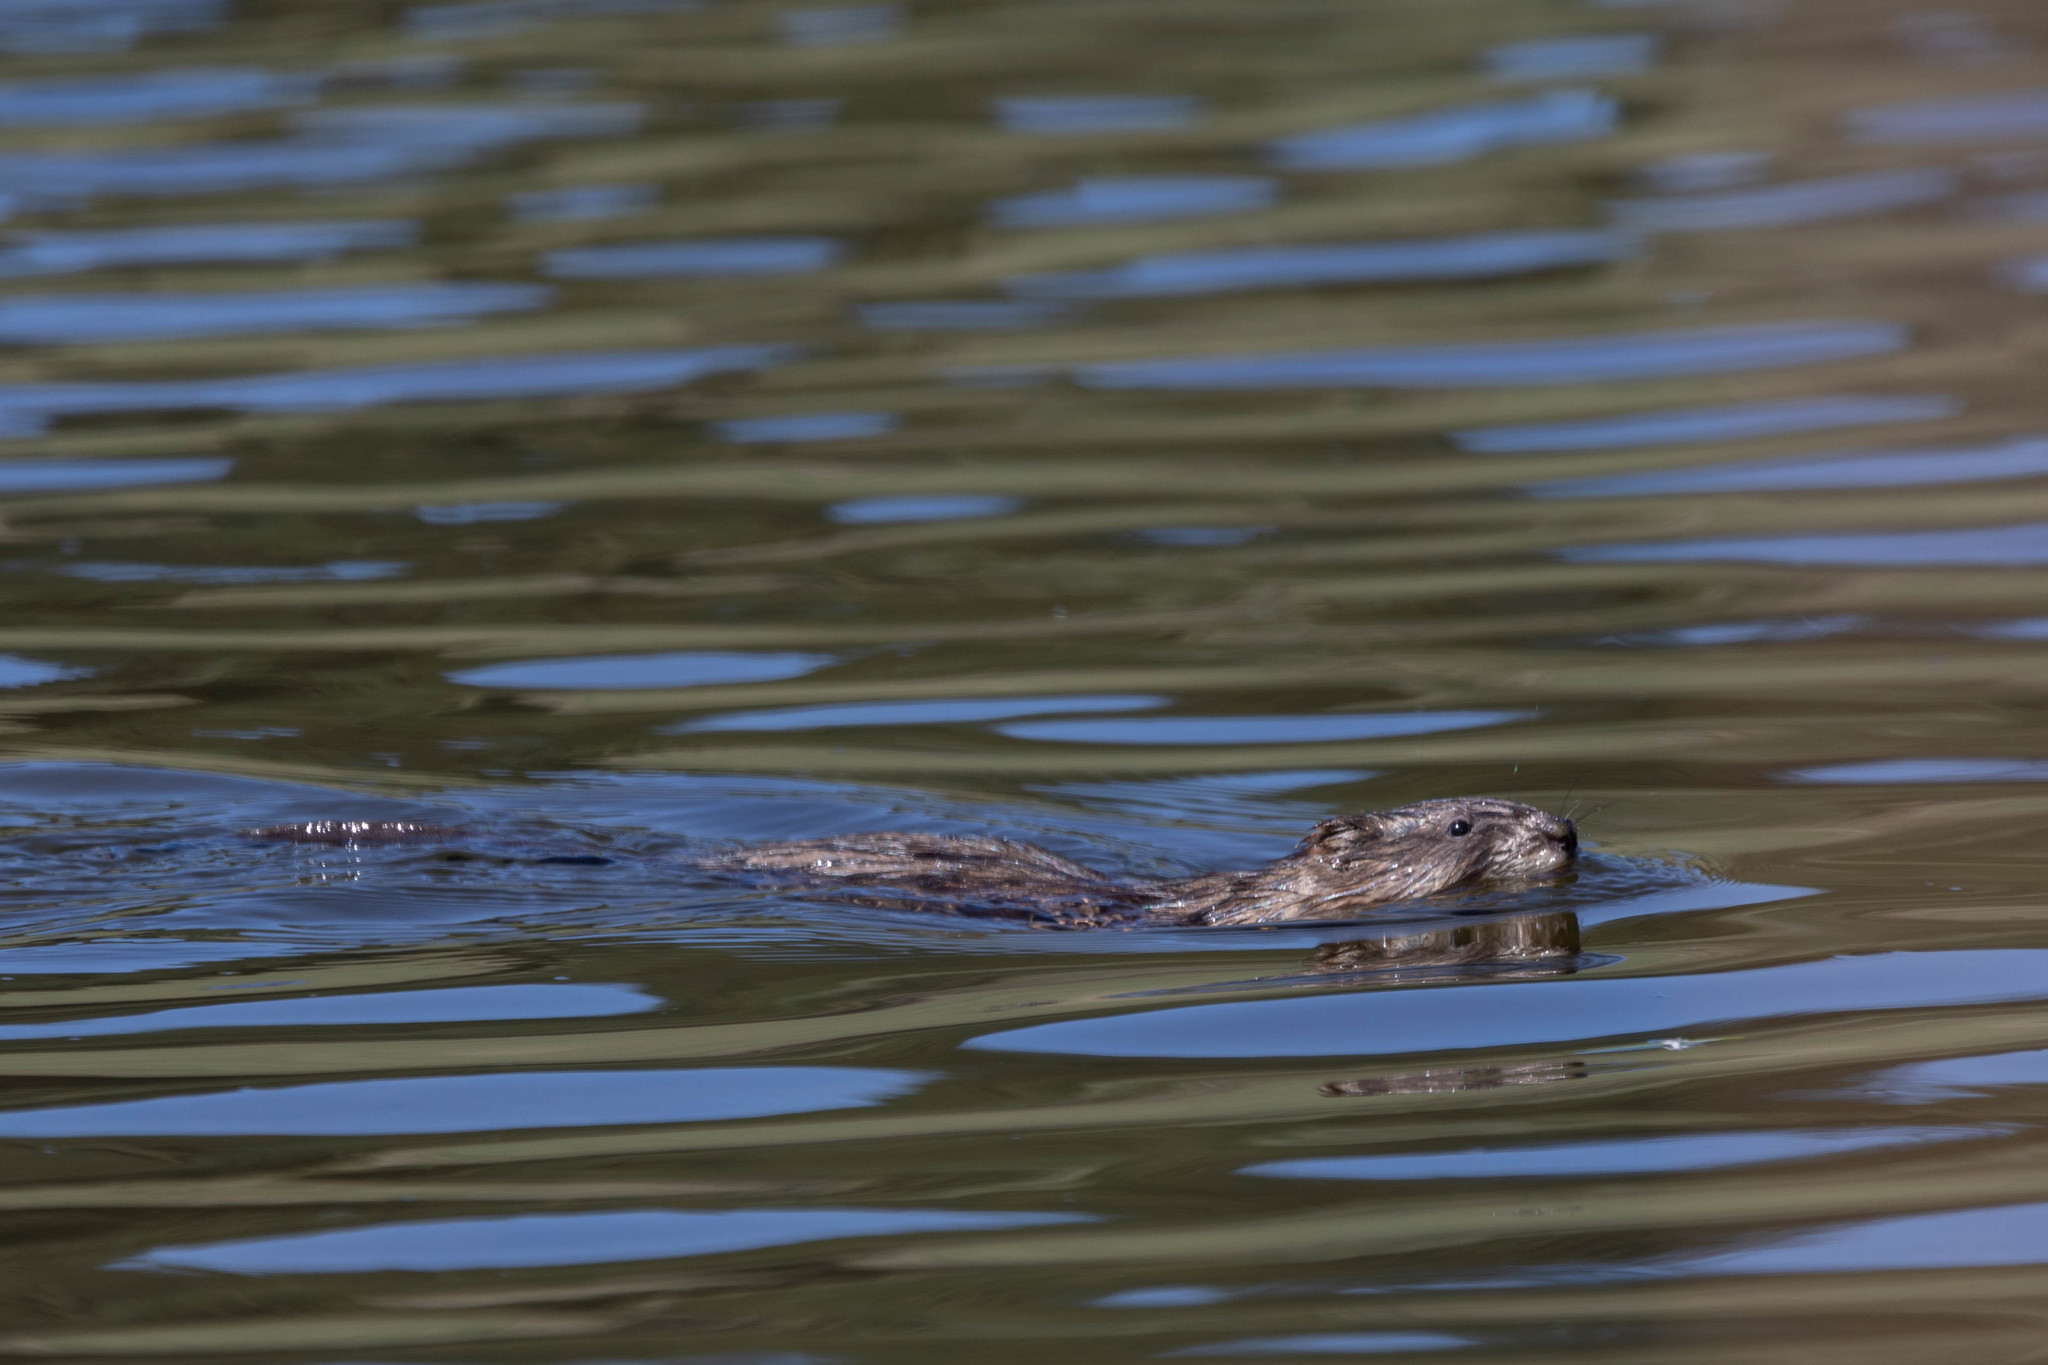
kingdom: Animalia
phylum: Chordata
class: Mammalia
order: Rodentia
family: Cricetidae
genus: Ondatra
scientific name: Ondatra zibethicus
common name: Muskrat
